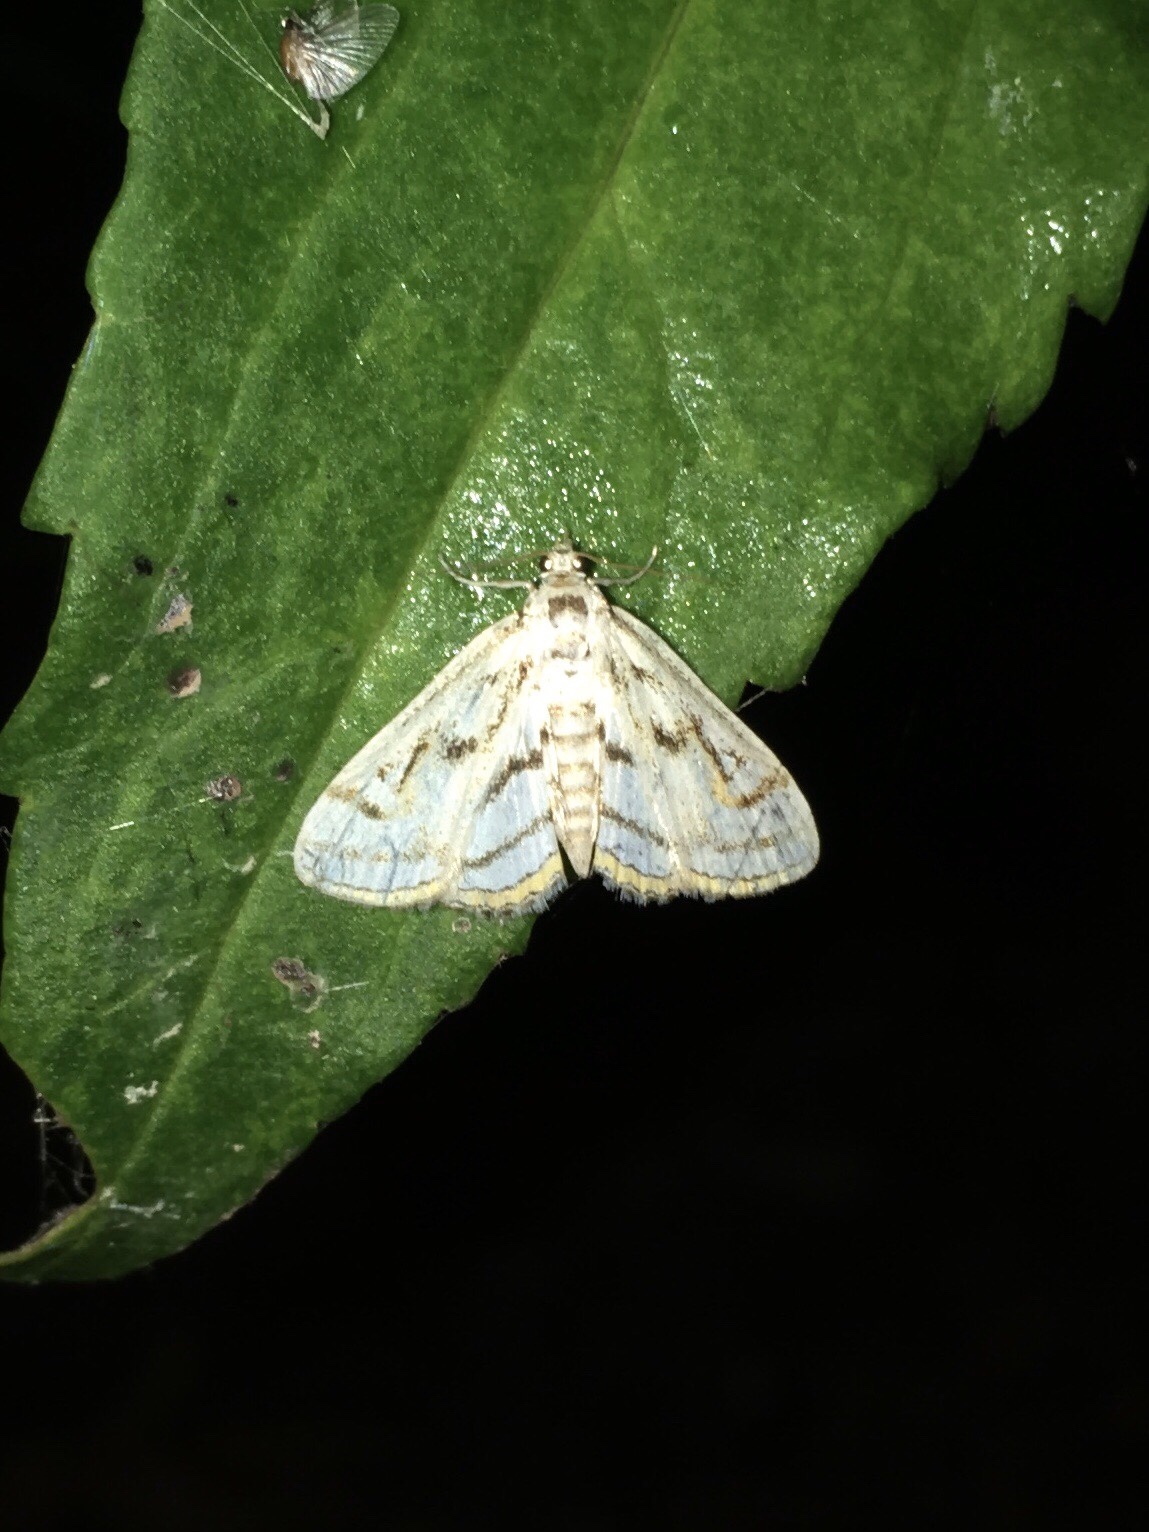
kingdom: Animalia
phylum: Arthropoda
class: Insecta
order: Lepidoptera
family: Crambidae
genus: Parapoynx
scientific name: Parapoynx badiusalis
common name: Chestnut-marked pondweed moth
